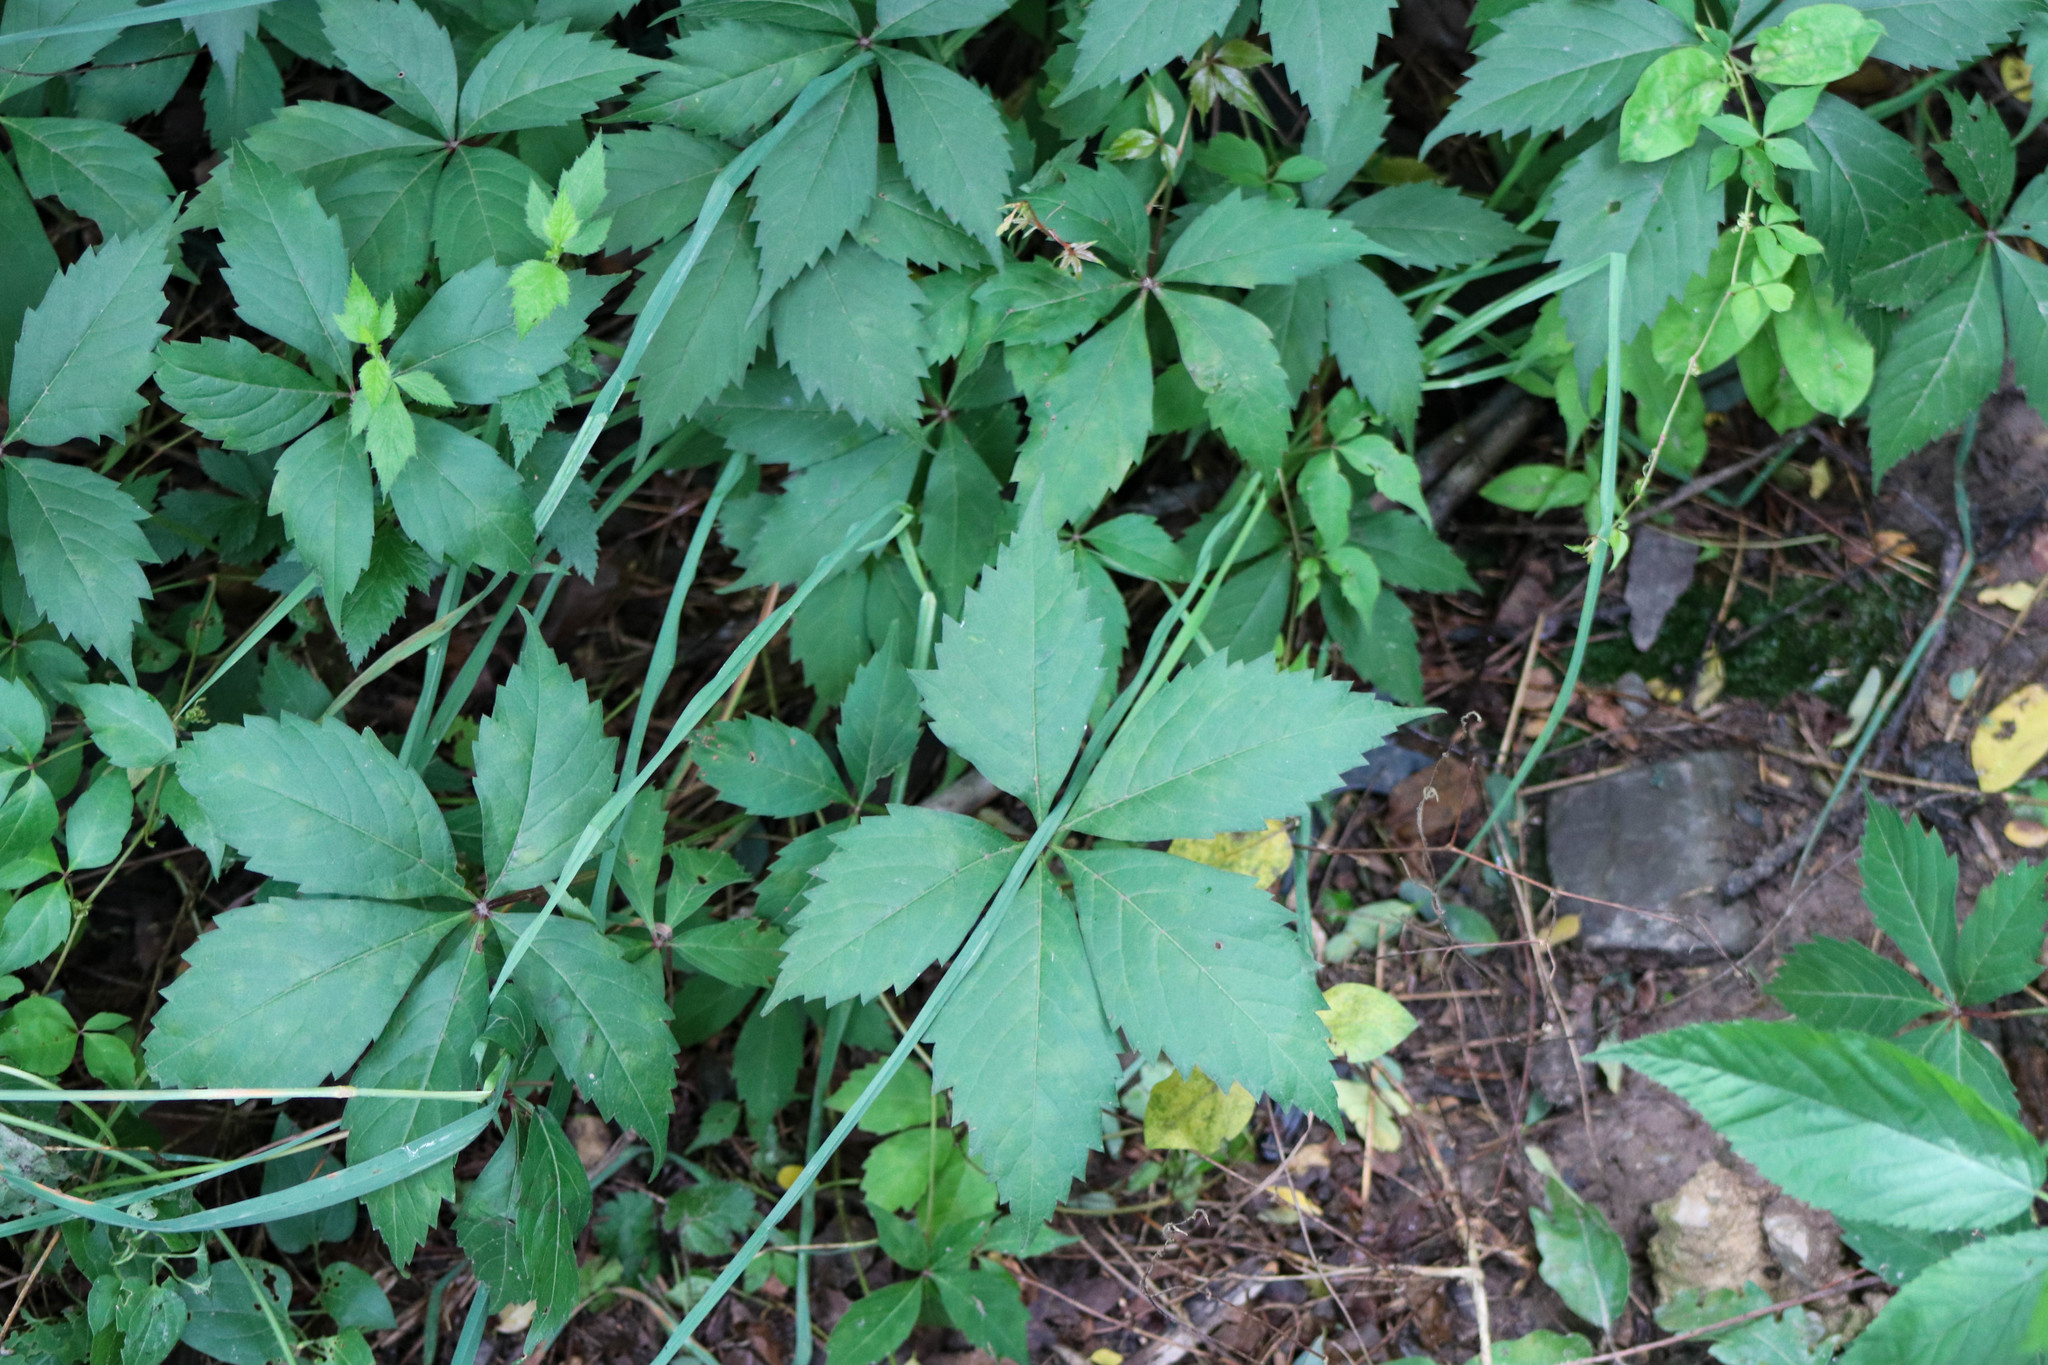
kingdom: Plantae
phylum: Tracheophyta
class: Magnoliopsida
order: Vitales
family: Vitaceae
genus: Parthenocissus
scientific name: Parthenocissus quinquefolia
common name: Virginia-creeper
